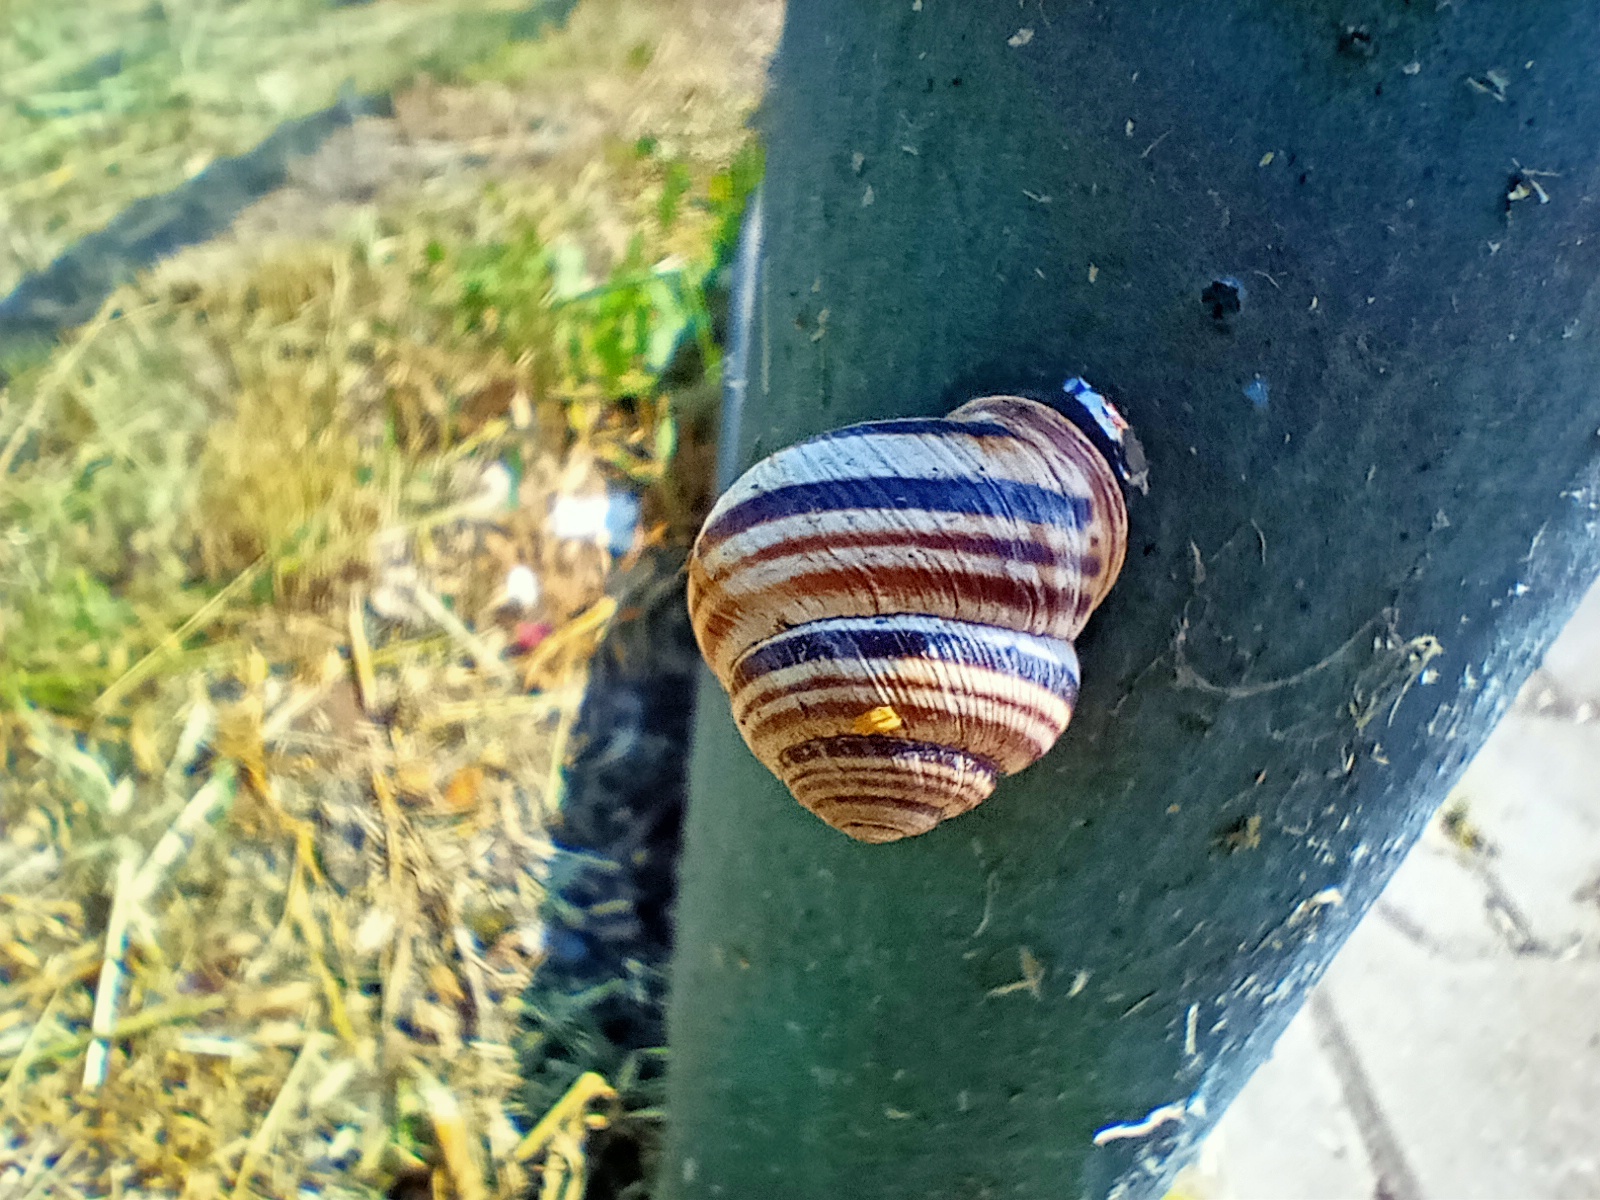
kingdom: Animalia
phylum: Mollusca
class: Gastropoda
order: Stylommatophora
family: Helicidae
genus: Caucasotachea
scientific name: Caucasotachea vindobonensis
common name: European helicid land snail
